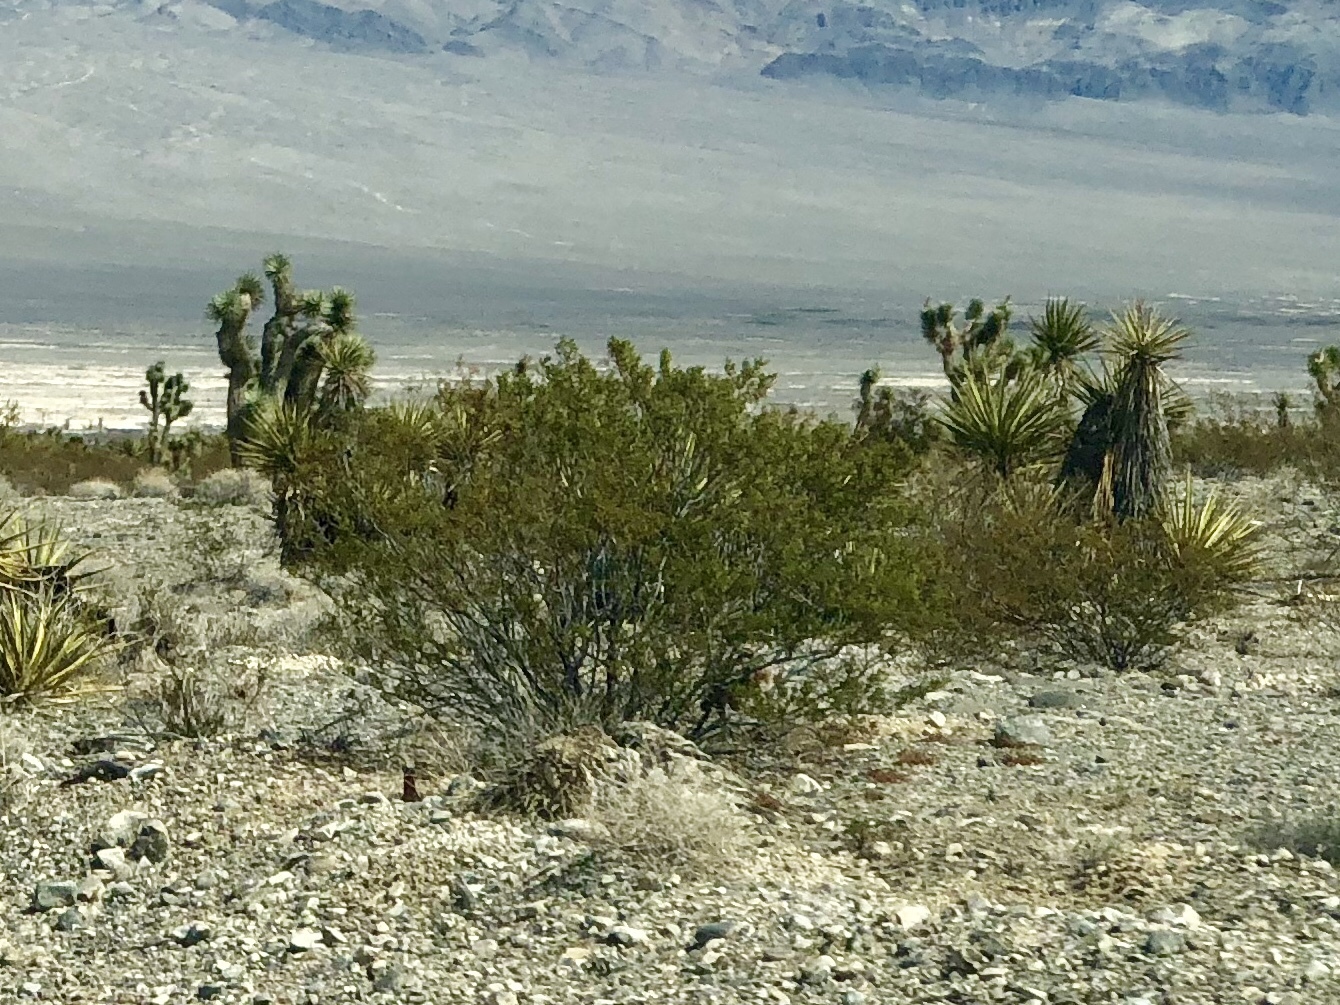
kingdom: Plantae
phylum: Tracheophyta
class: Magnoliopsida
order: Zygophyllales
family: Zygophyllaceae
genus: Larrea
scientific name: Larrea tridentata
